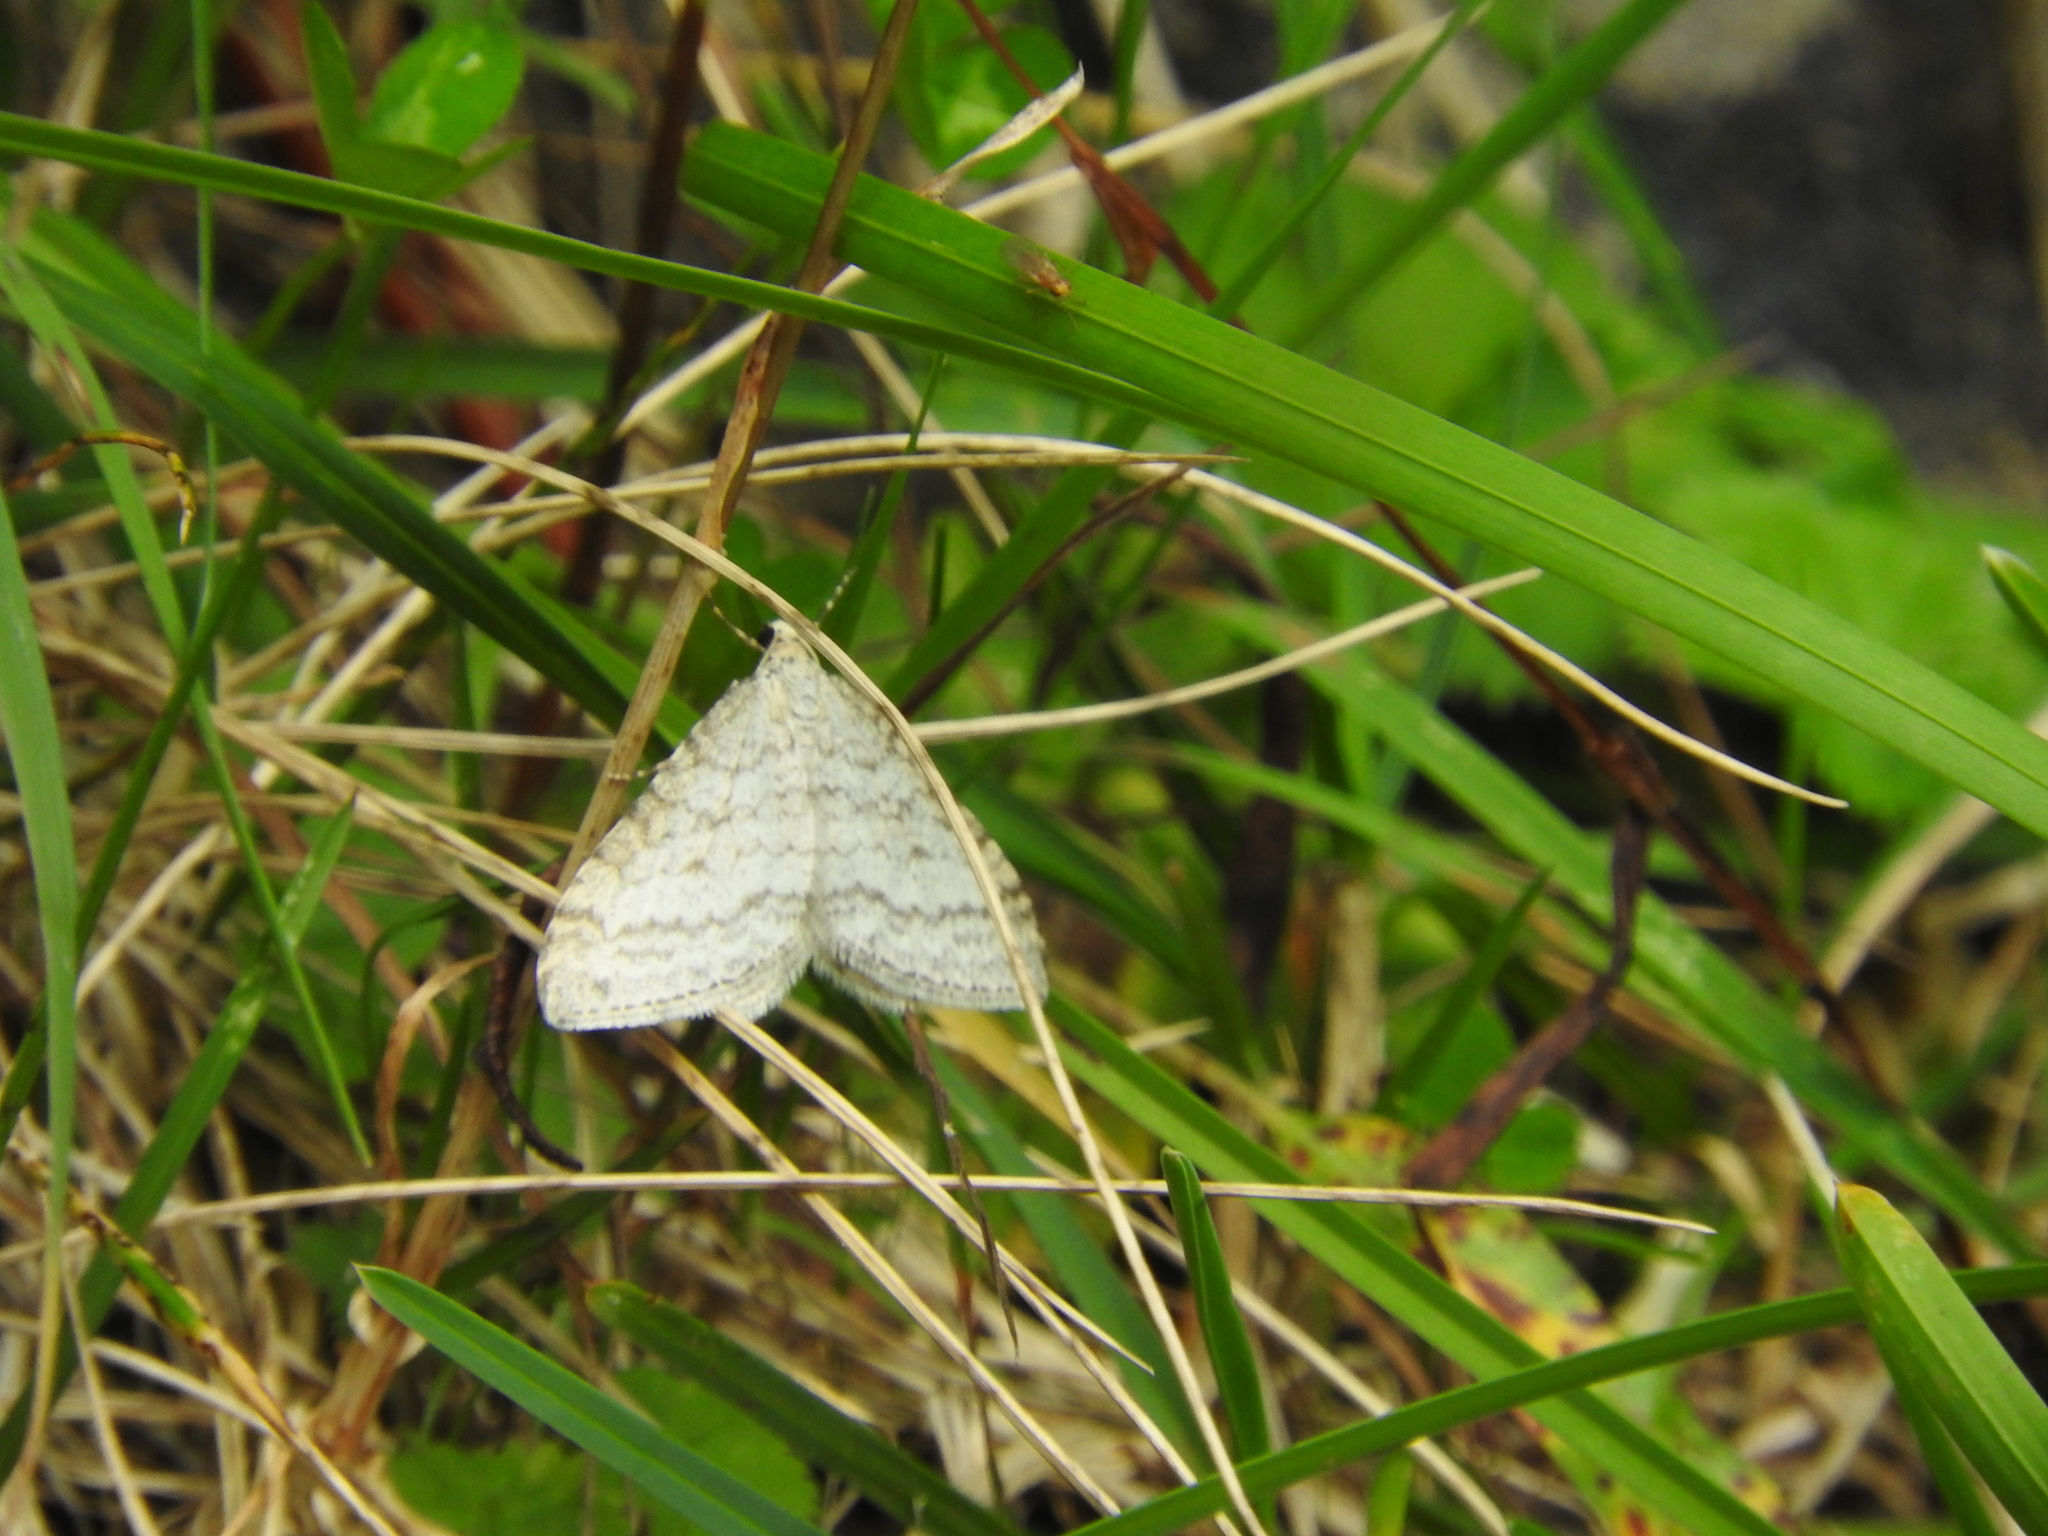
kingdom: Animalia
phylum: Arthropoda
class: Insecta
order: Lepidoptera
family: Geometridae
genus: Perizoma
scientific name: Perizoma verberata
